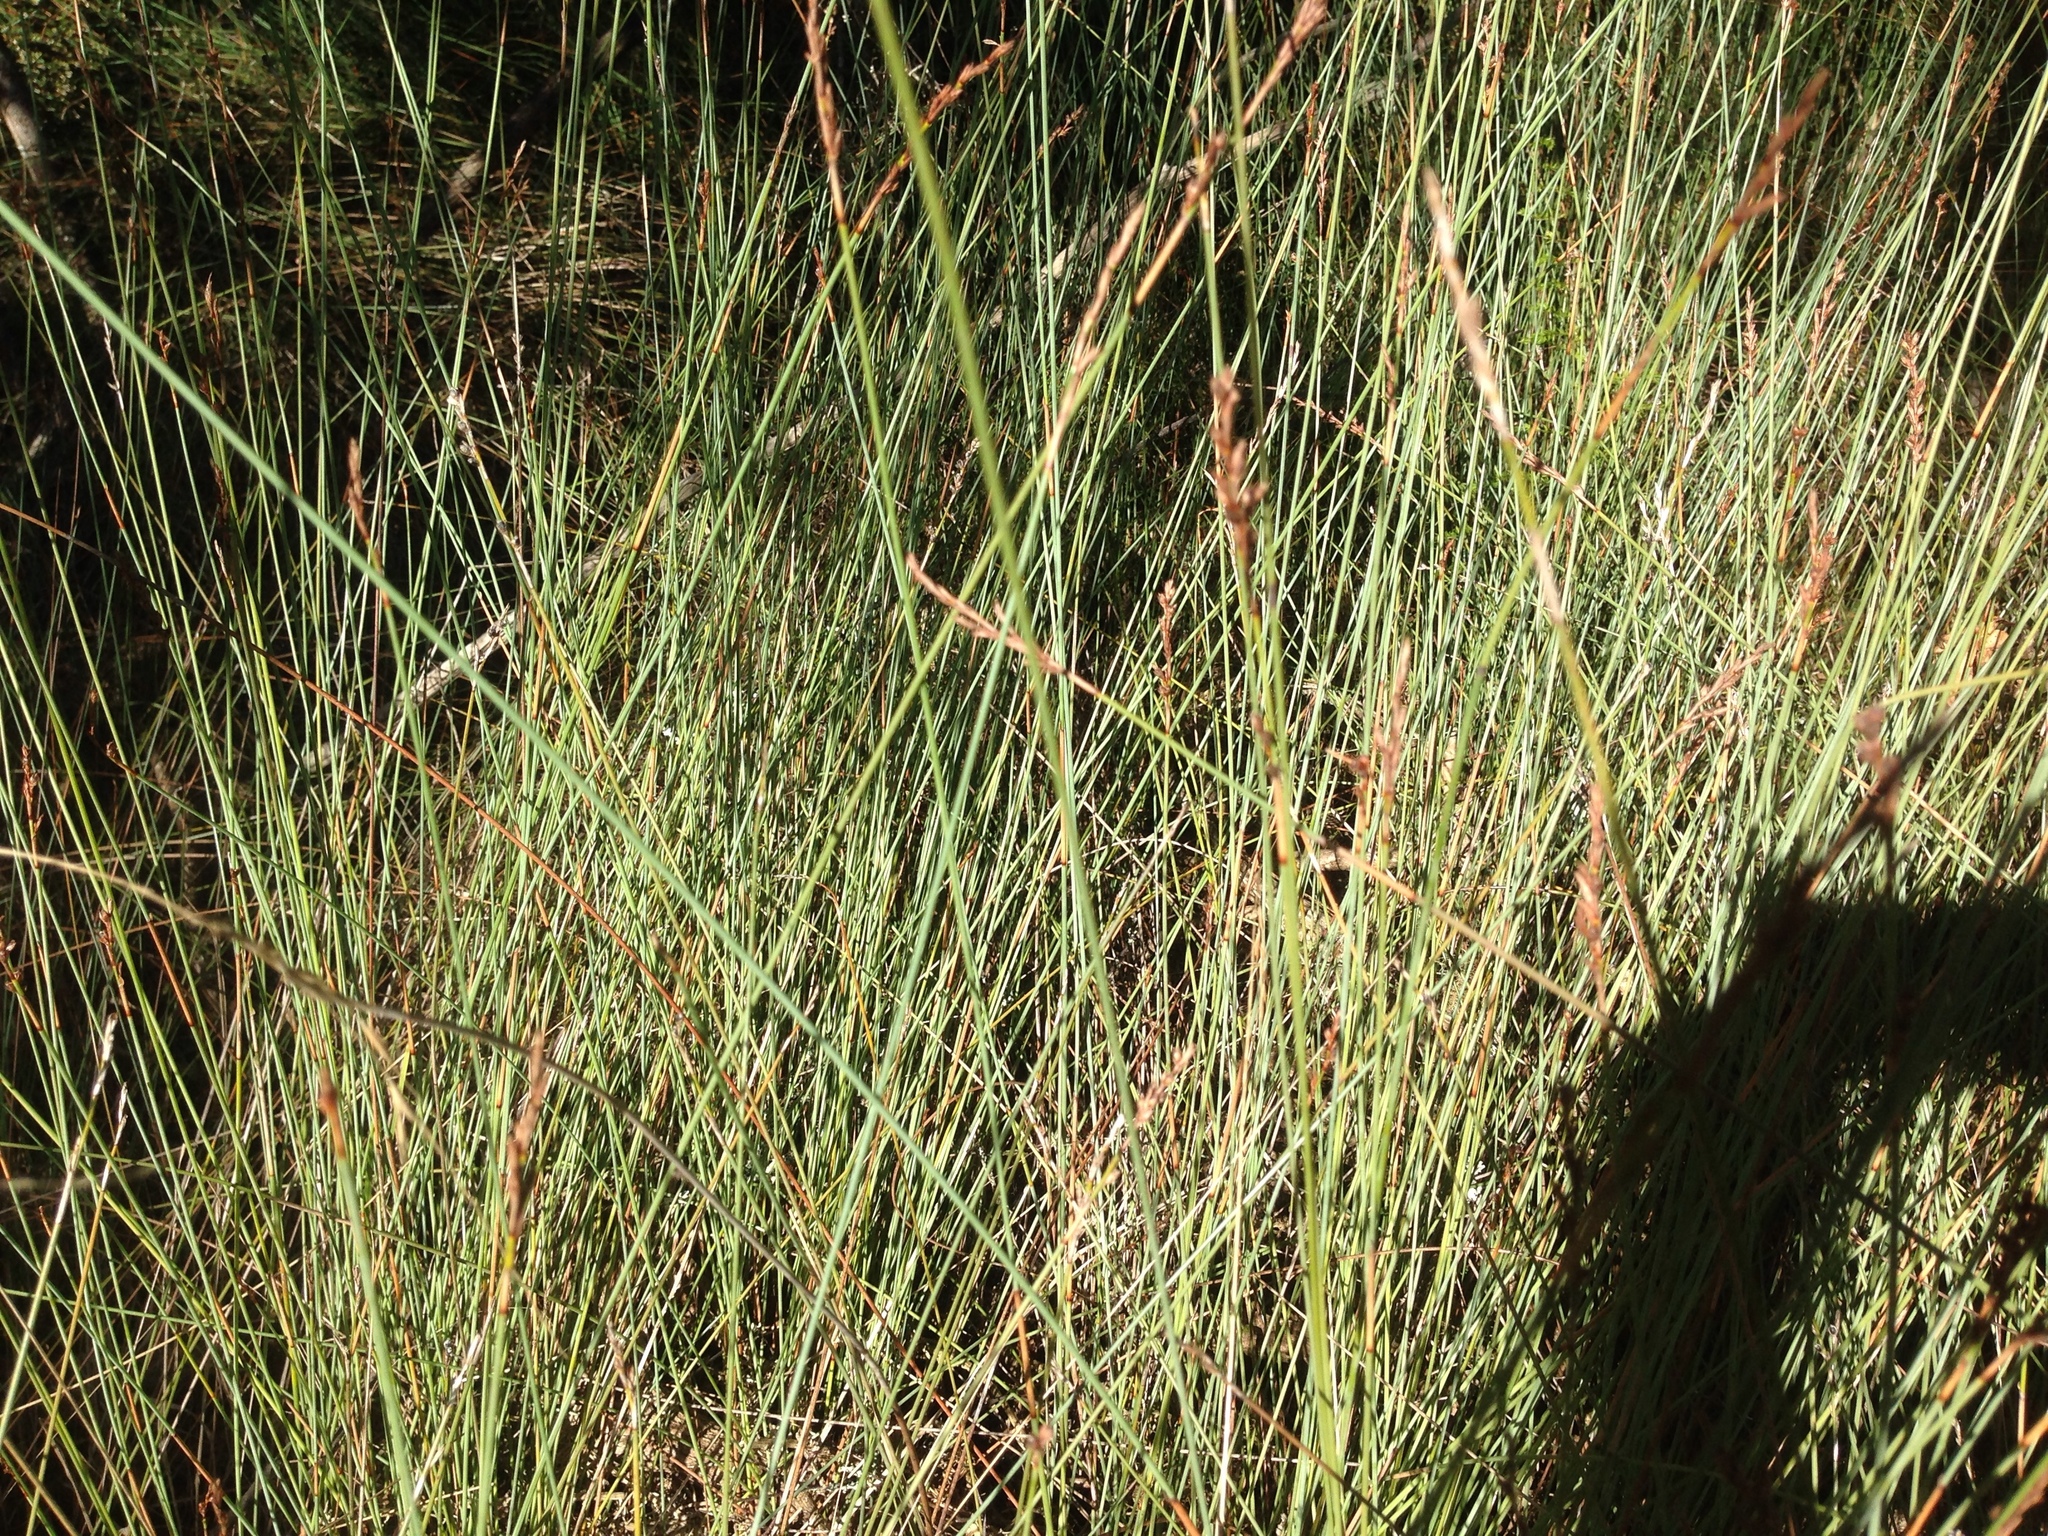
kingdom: Plantae
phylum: Tracheophyta
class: Liliopsida
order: Poales
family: Cyperaceae
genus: Machaerina
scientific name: Machaerina juncea
